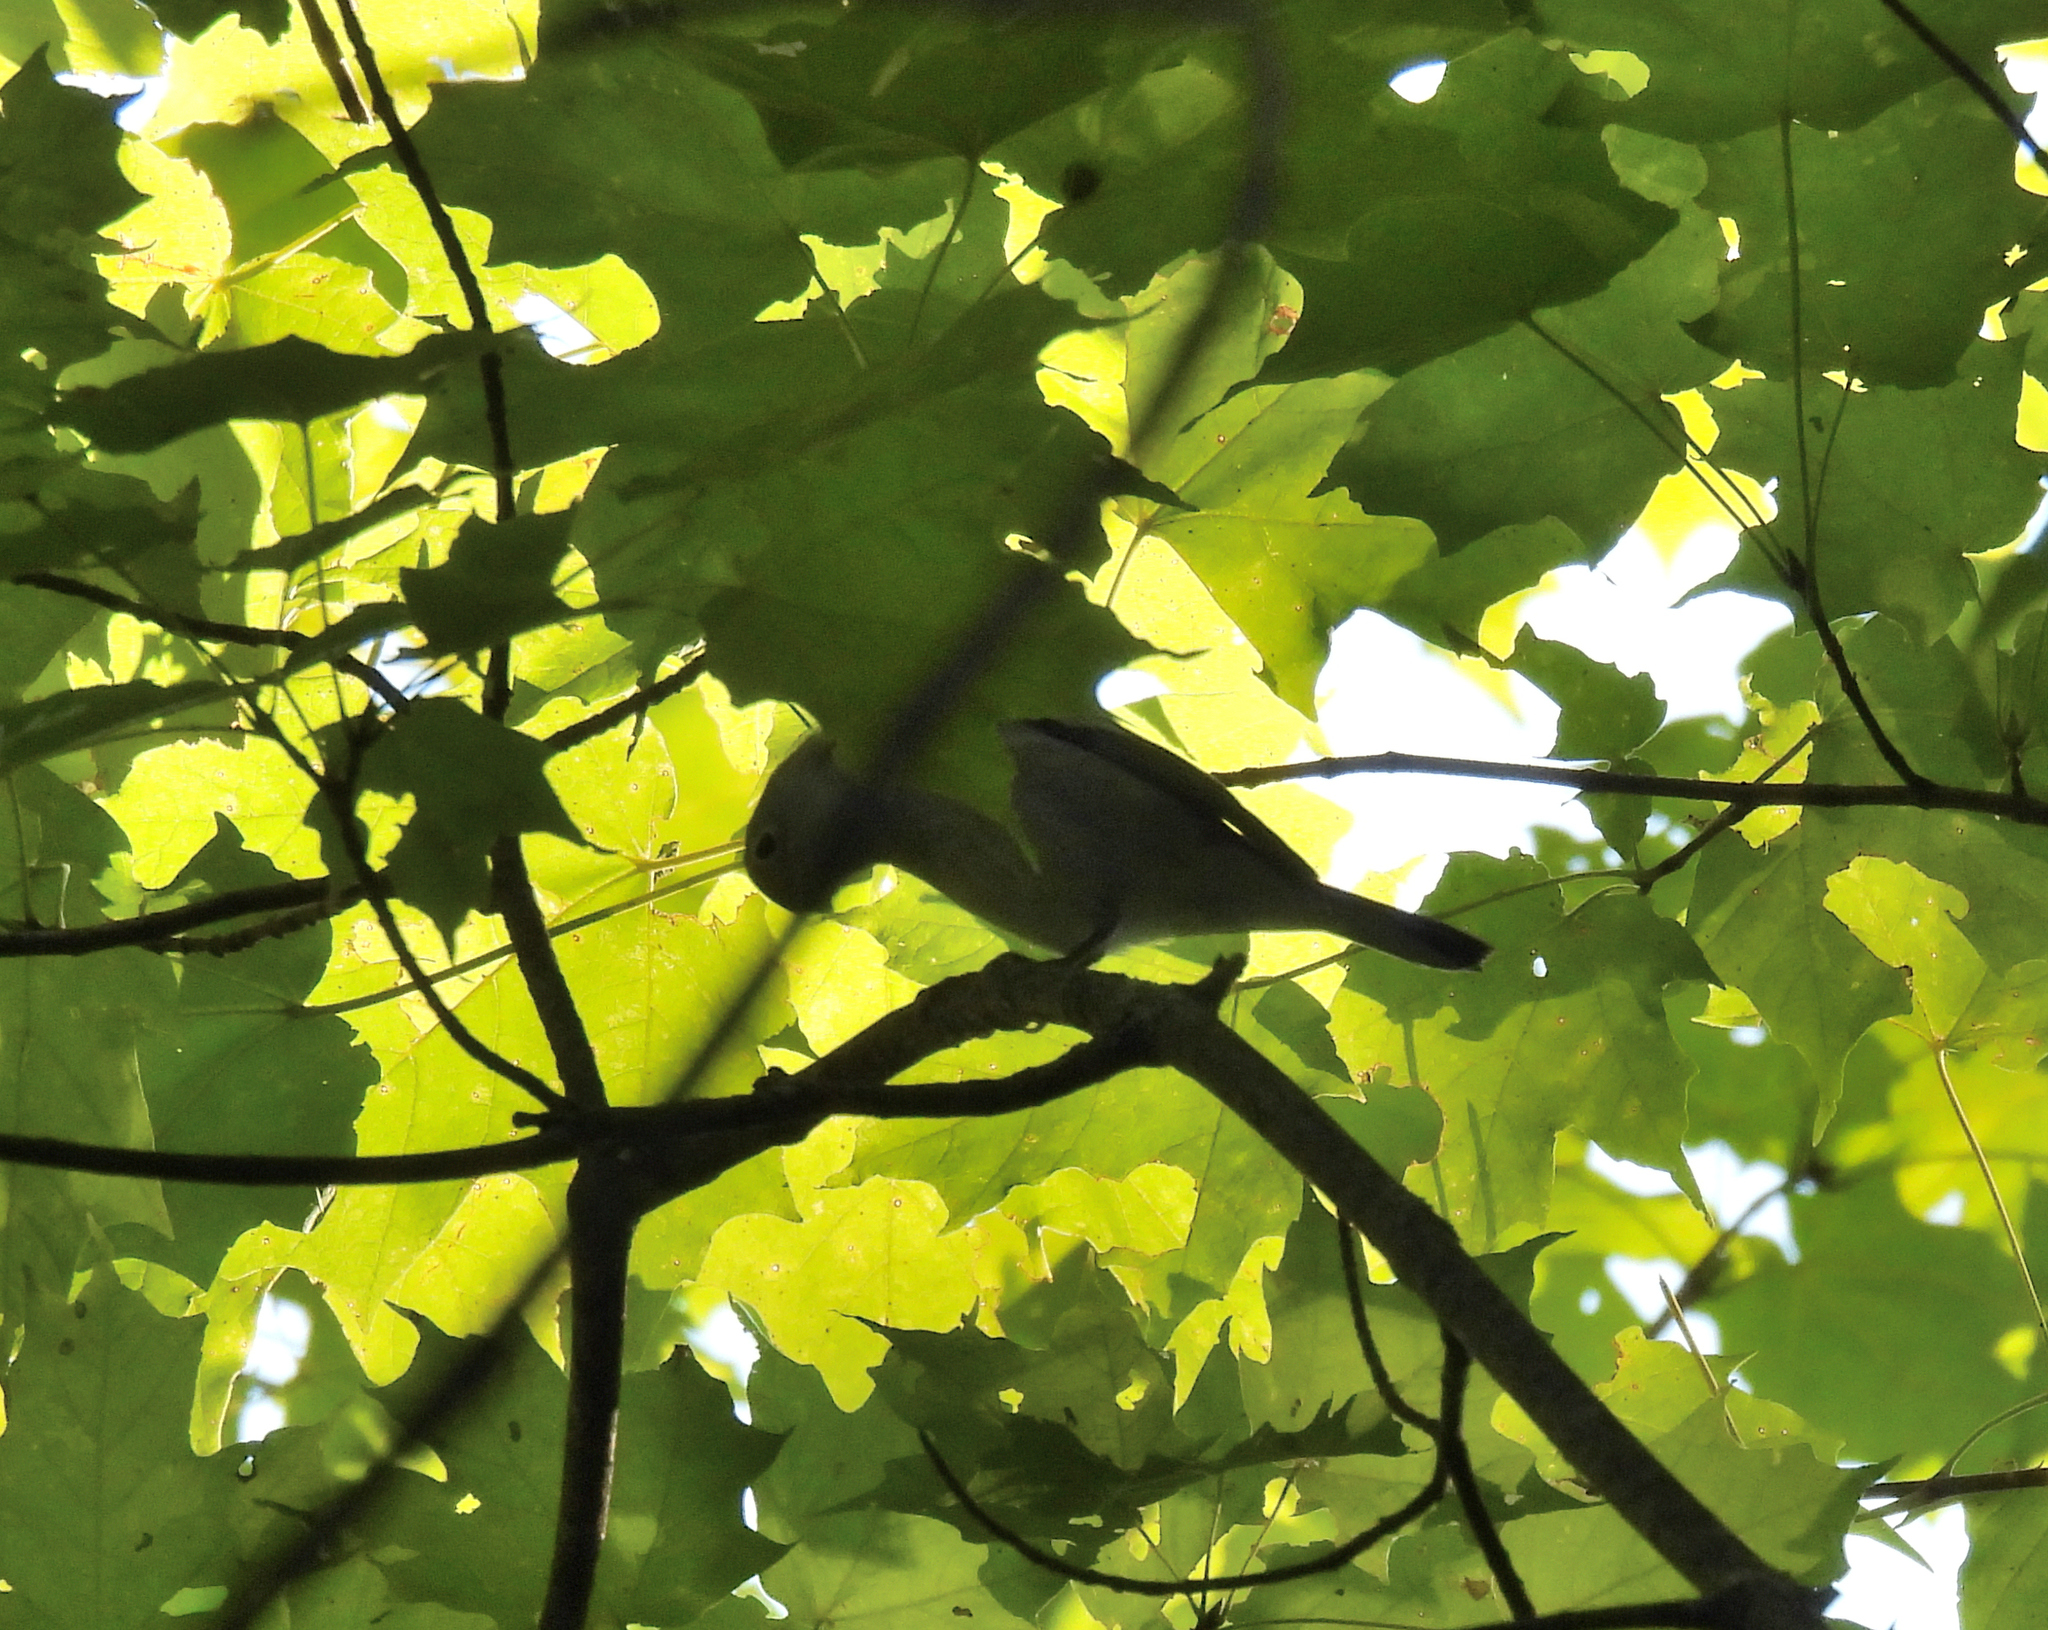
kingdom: Animalia
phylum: Chordata
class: Aves
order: Passeriformes
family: Parulidae
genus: Setophaga
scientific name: Setophaga pensylvanica
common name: Chestnut-sided warbler
